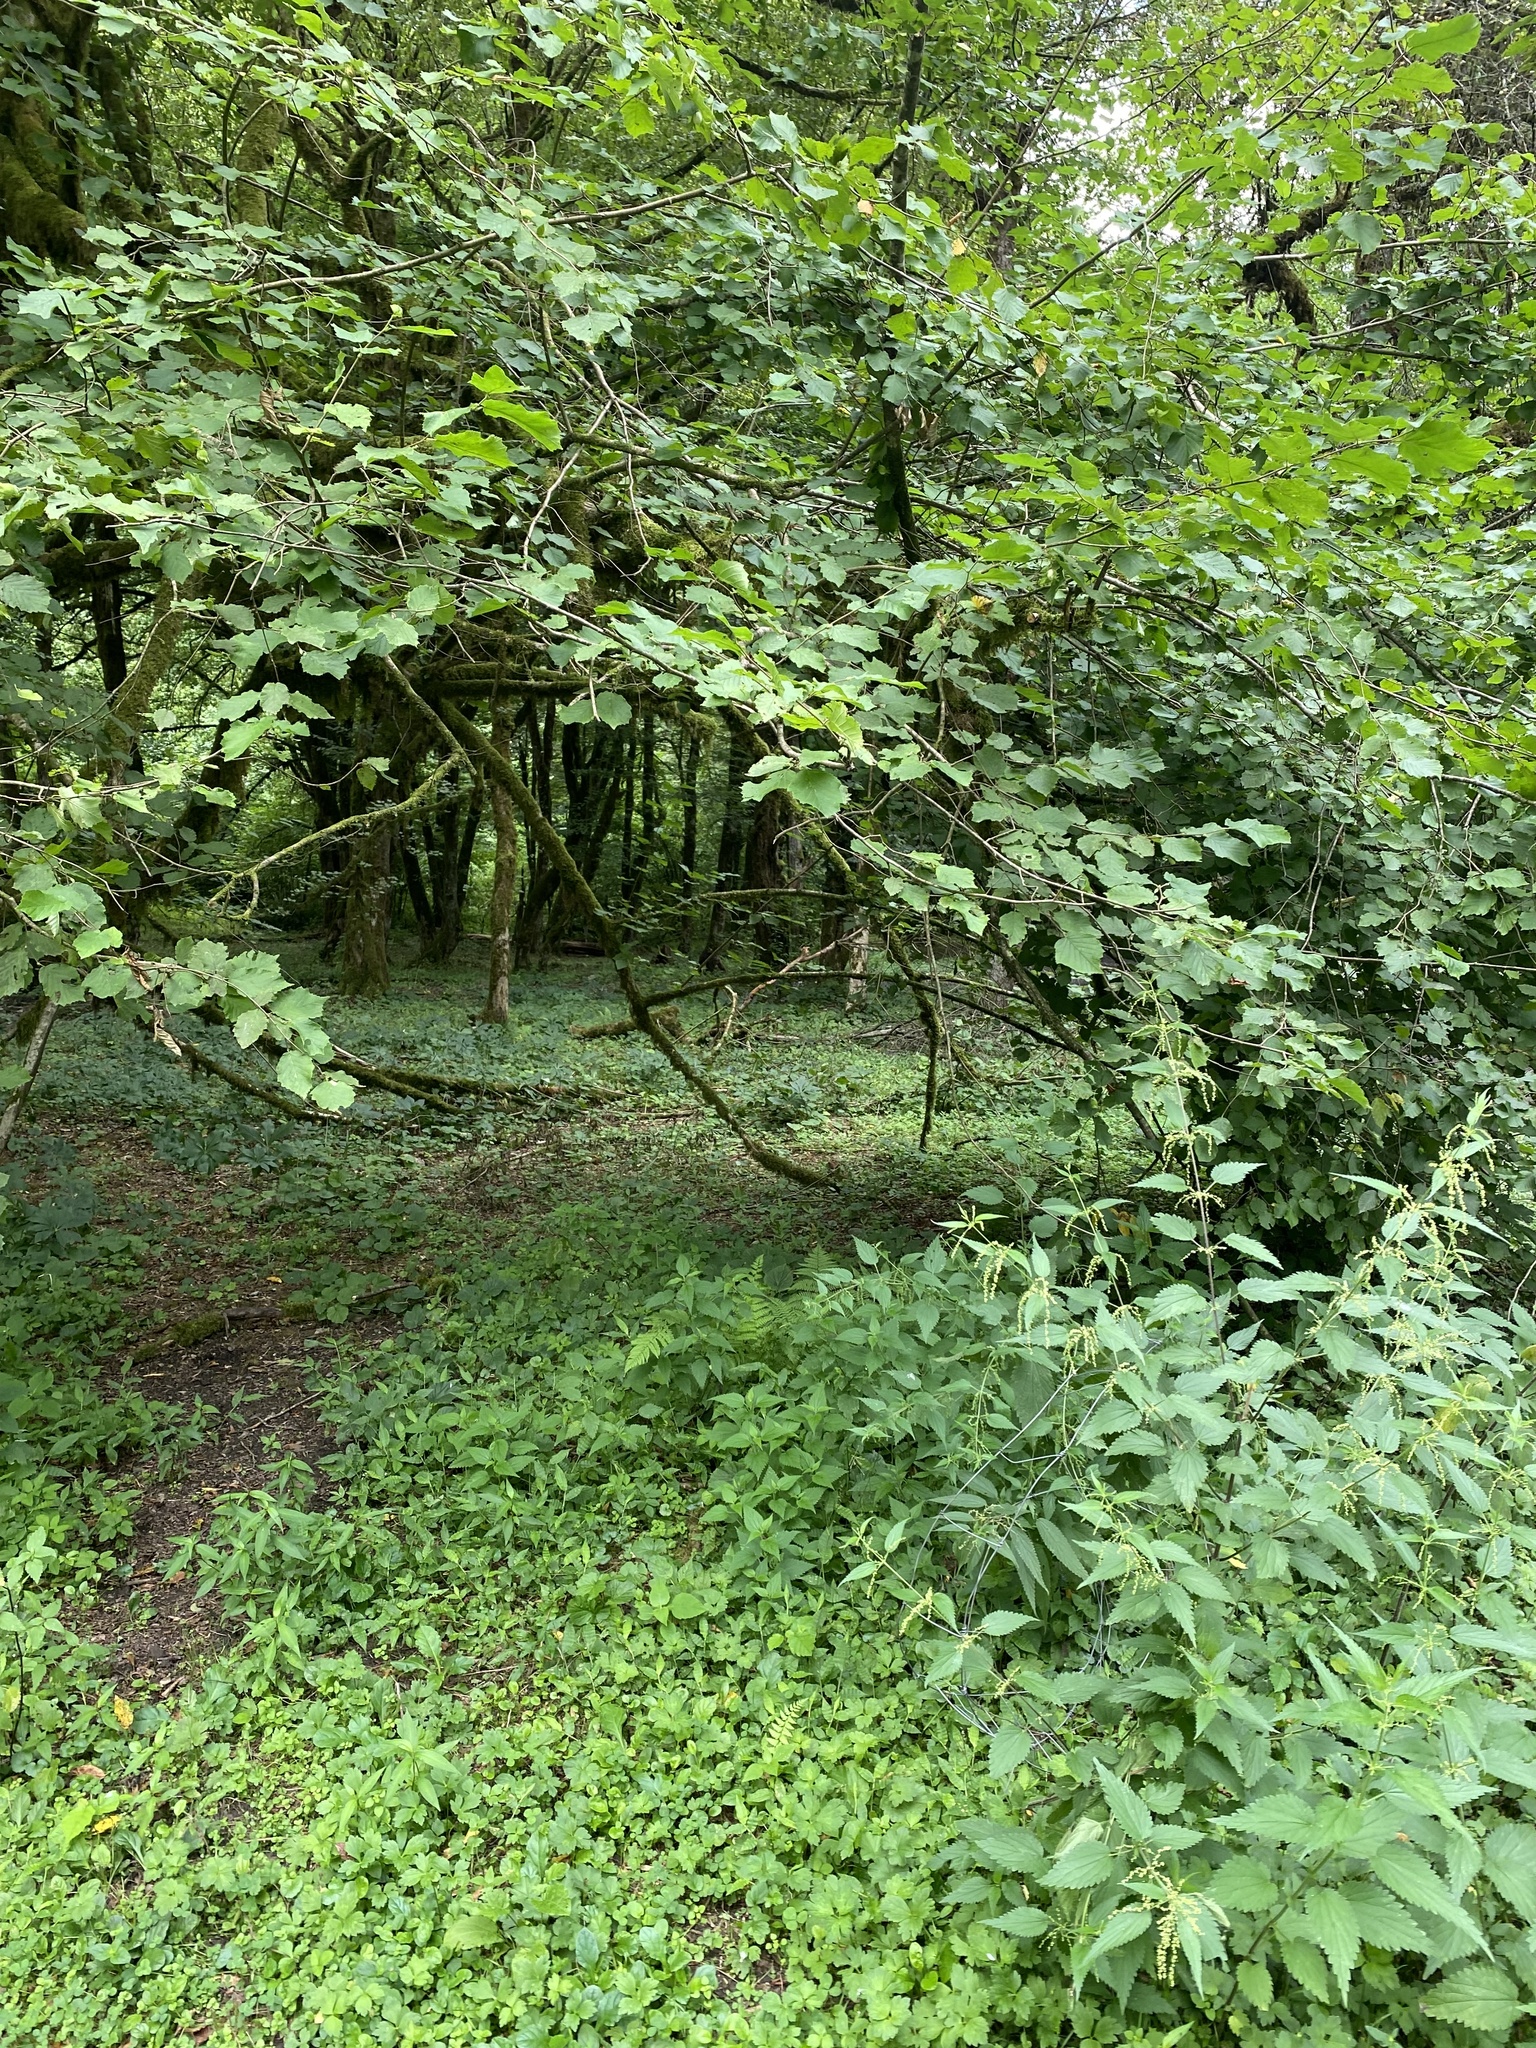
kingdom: Plantae
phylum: Tracheophyta
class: Magnoliopsida
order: Fagales
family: Betulaceae
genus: Corylus
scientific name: Corylus avellana
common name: European hazel
